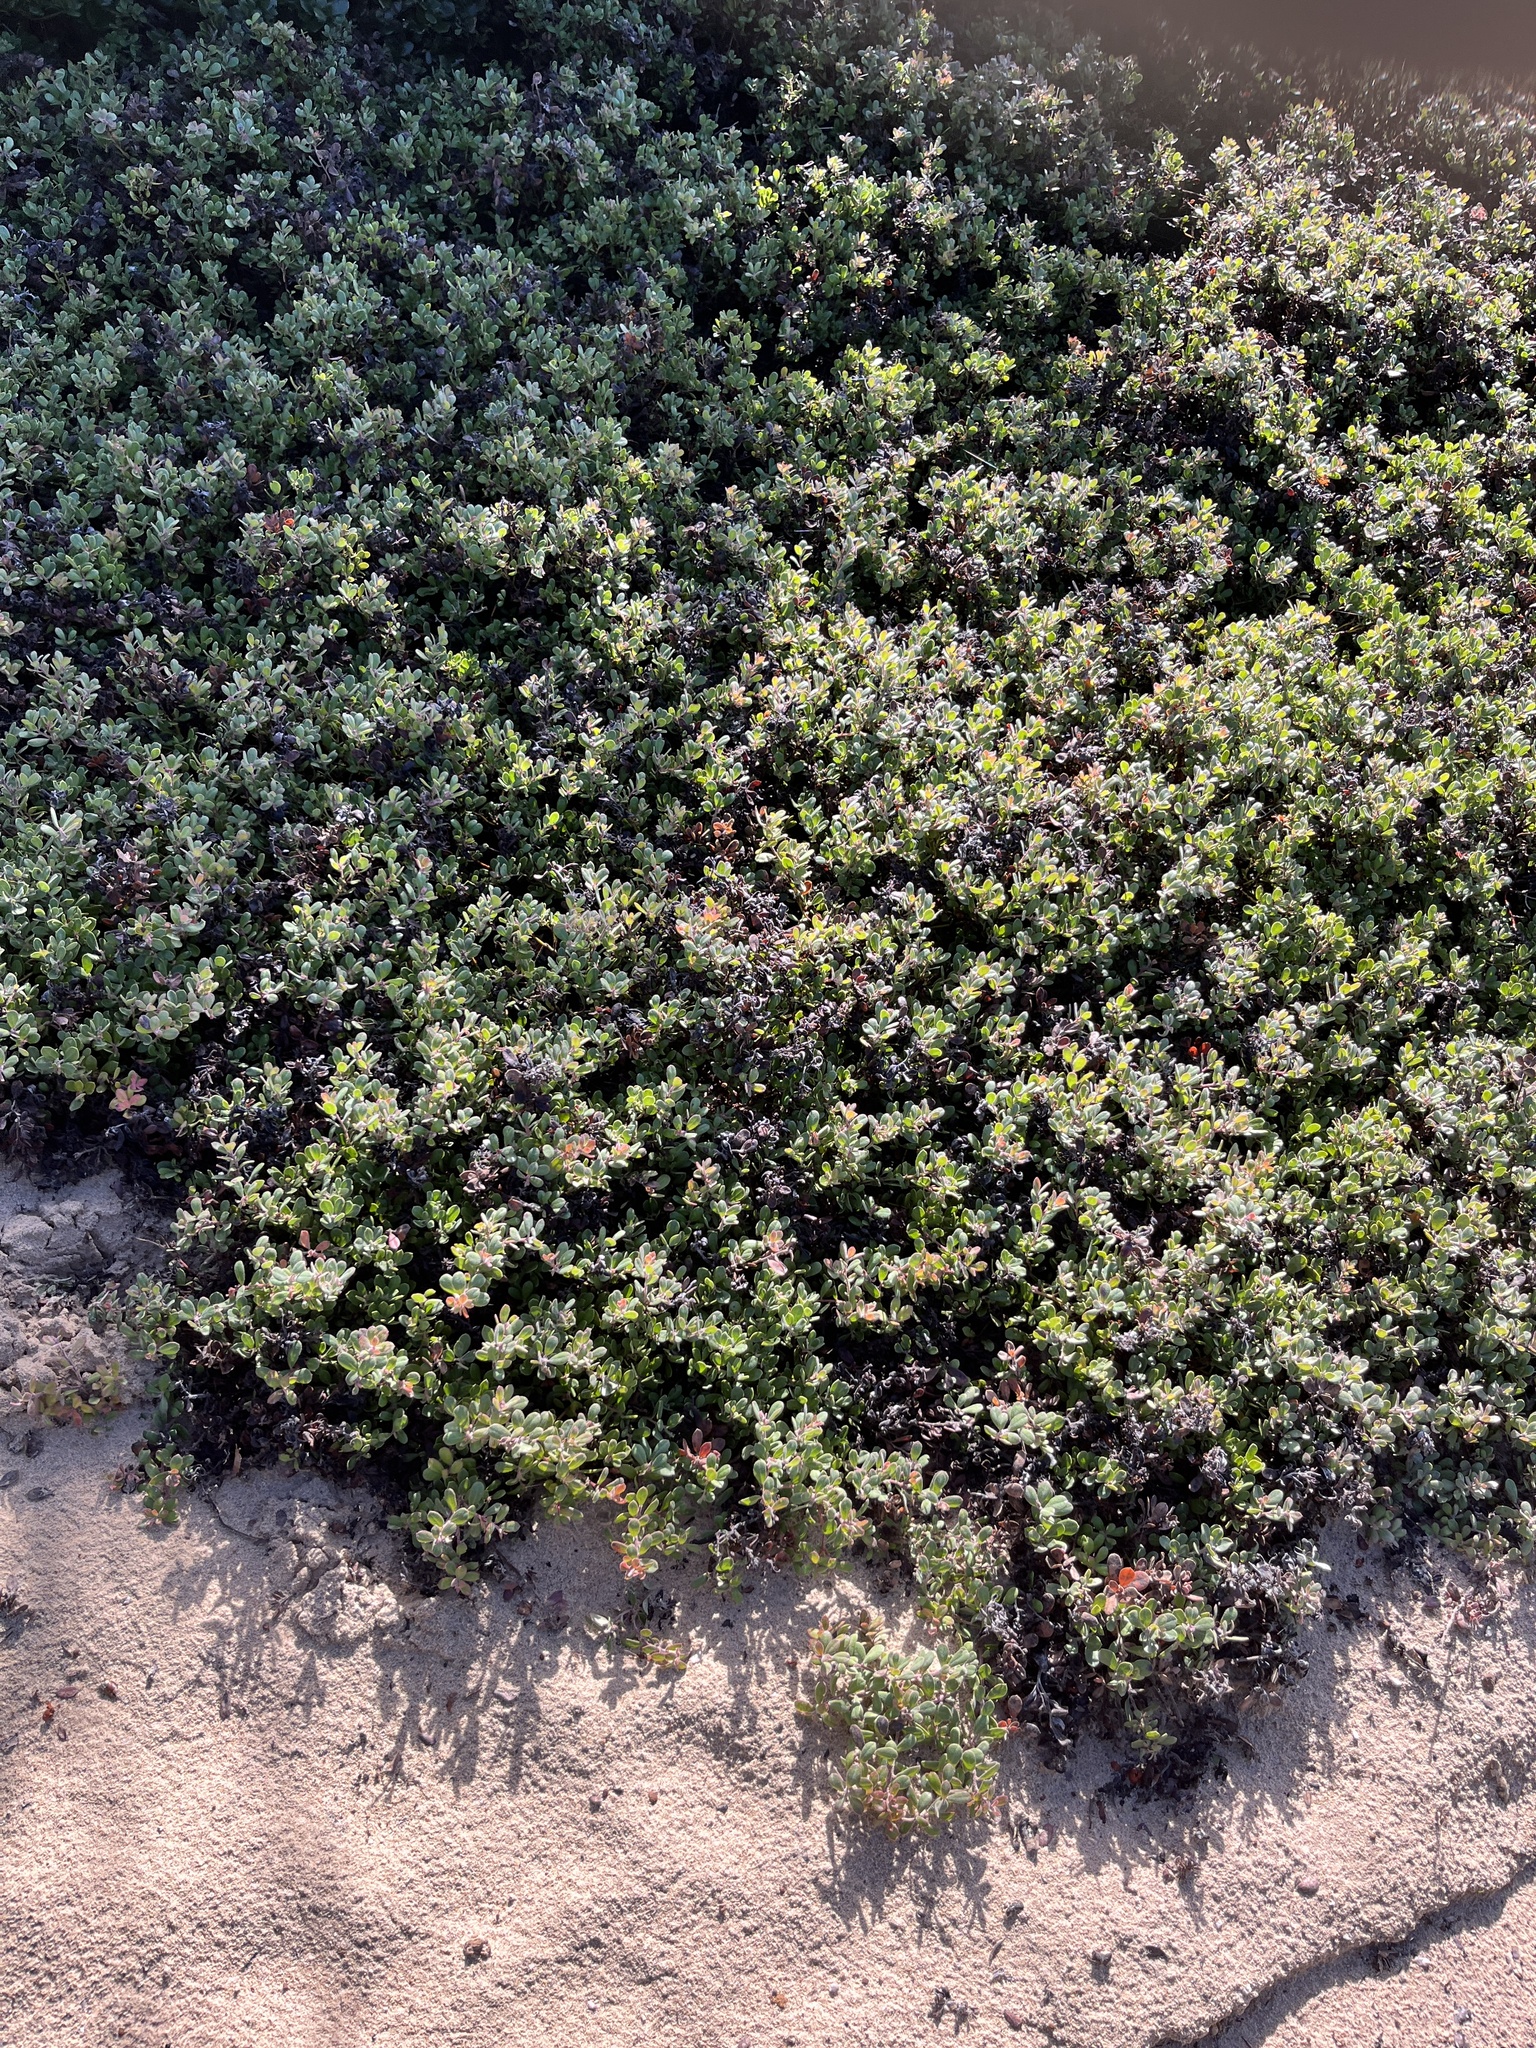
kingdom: Plantae
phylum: Tracheophyta
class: Magnoliopsida
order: Ericales
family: Ericaceae
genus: Arctostaphylos
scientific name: Arctostaphylos pumila
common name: Sandmat manzanita
